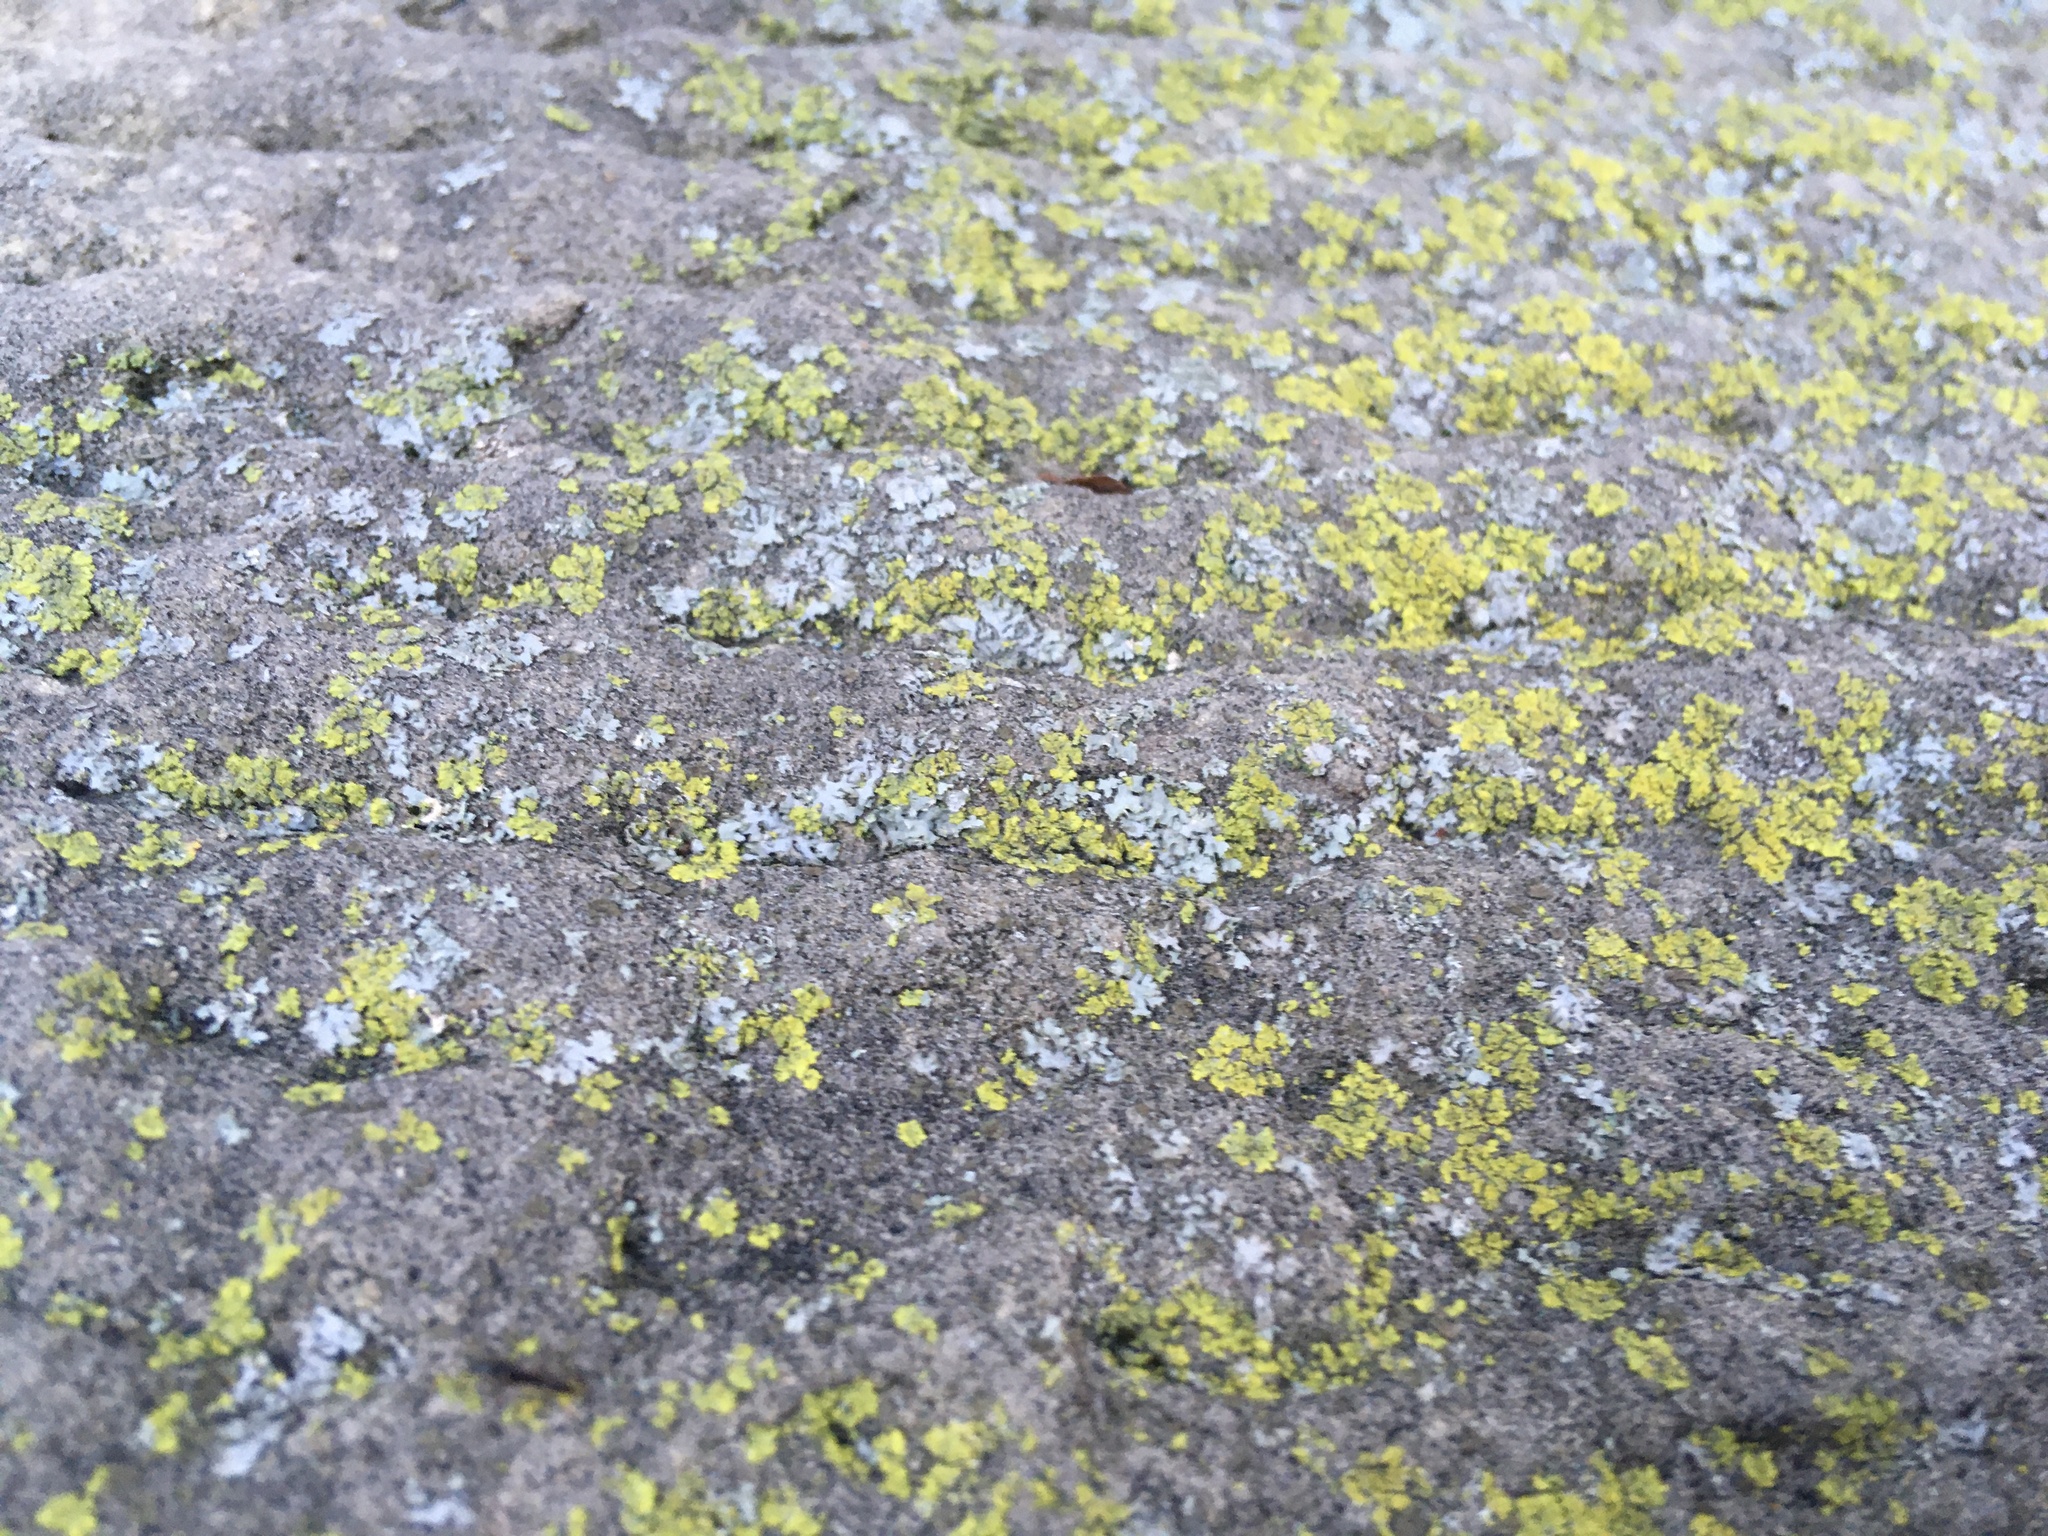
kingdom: Fungi
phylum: Ascomycota
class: Candelariomycetes
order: Candelariales
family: Candelariaceae
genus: Candelaria
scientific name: Candelaria concolor
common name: Candleflame lichen
